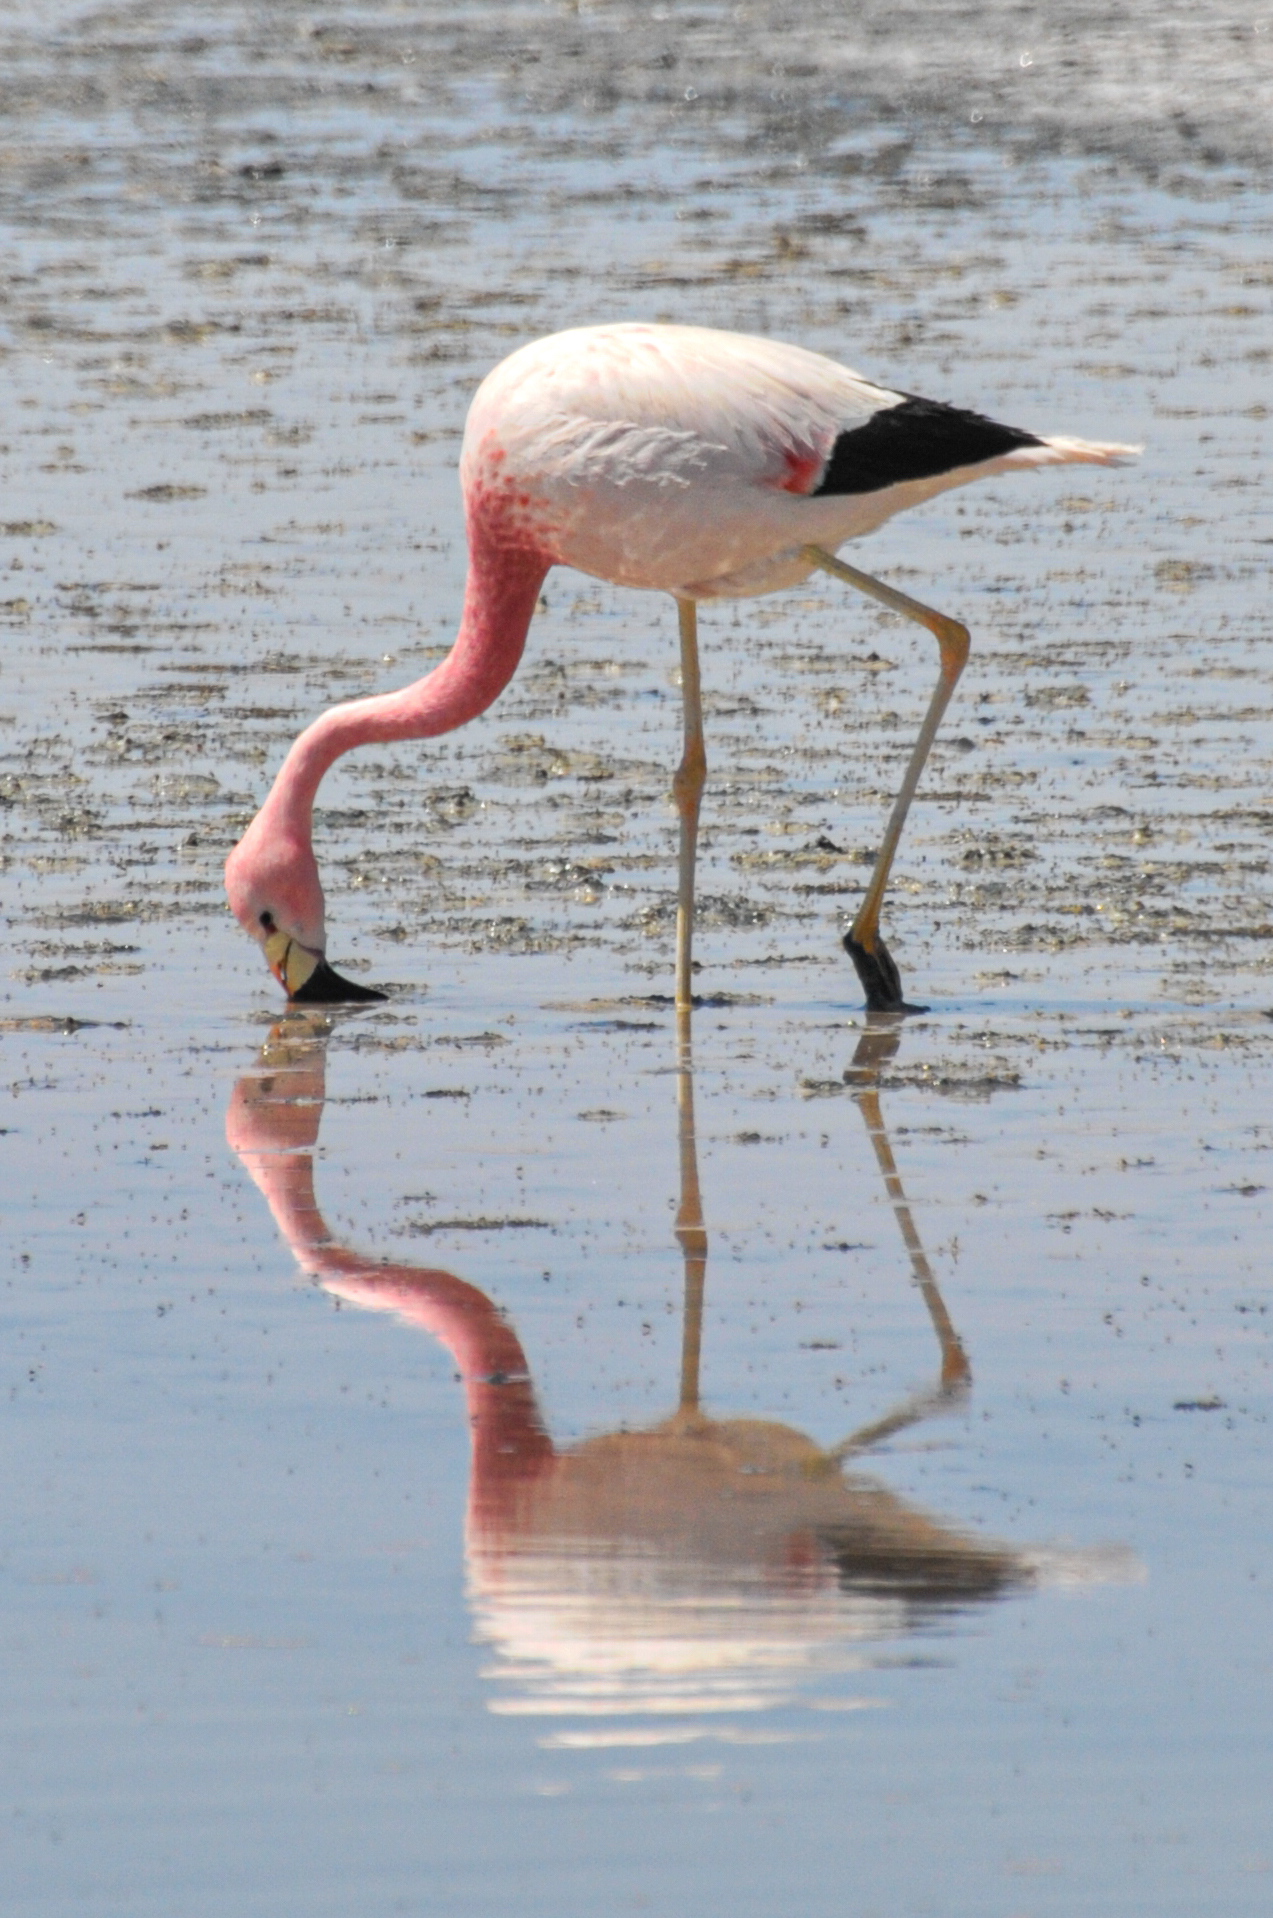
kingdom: Animalia
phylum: Chordata
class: Aves
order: Phoenicopteriformes
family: Phoenicopteridae
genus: Phoenicoparrus
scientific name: Phoenicoparrus andinus
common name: Andean flamingo
